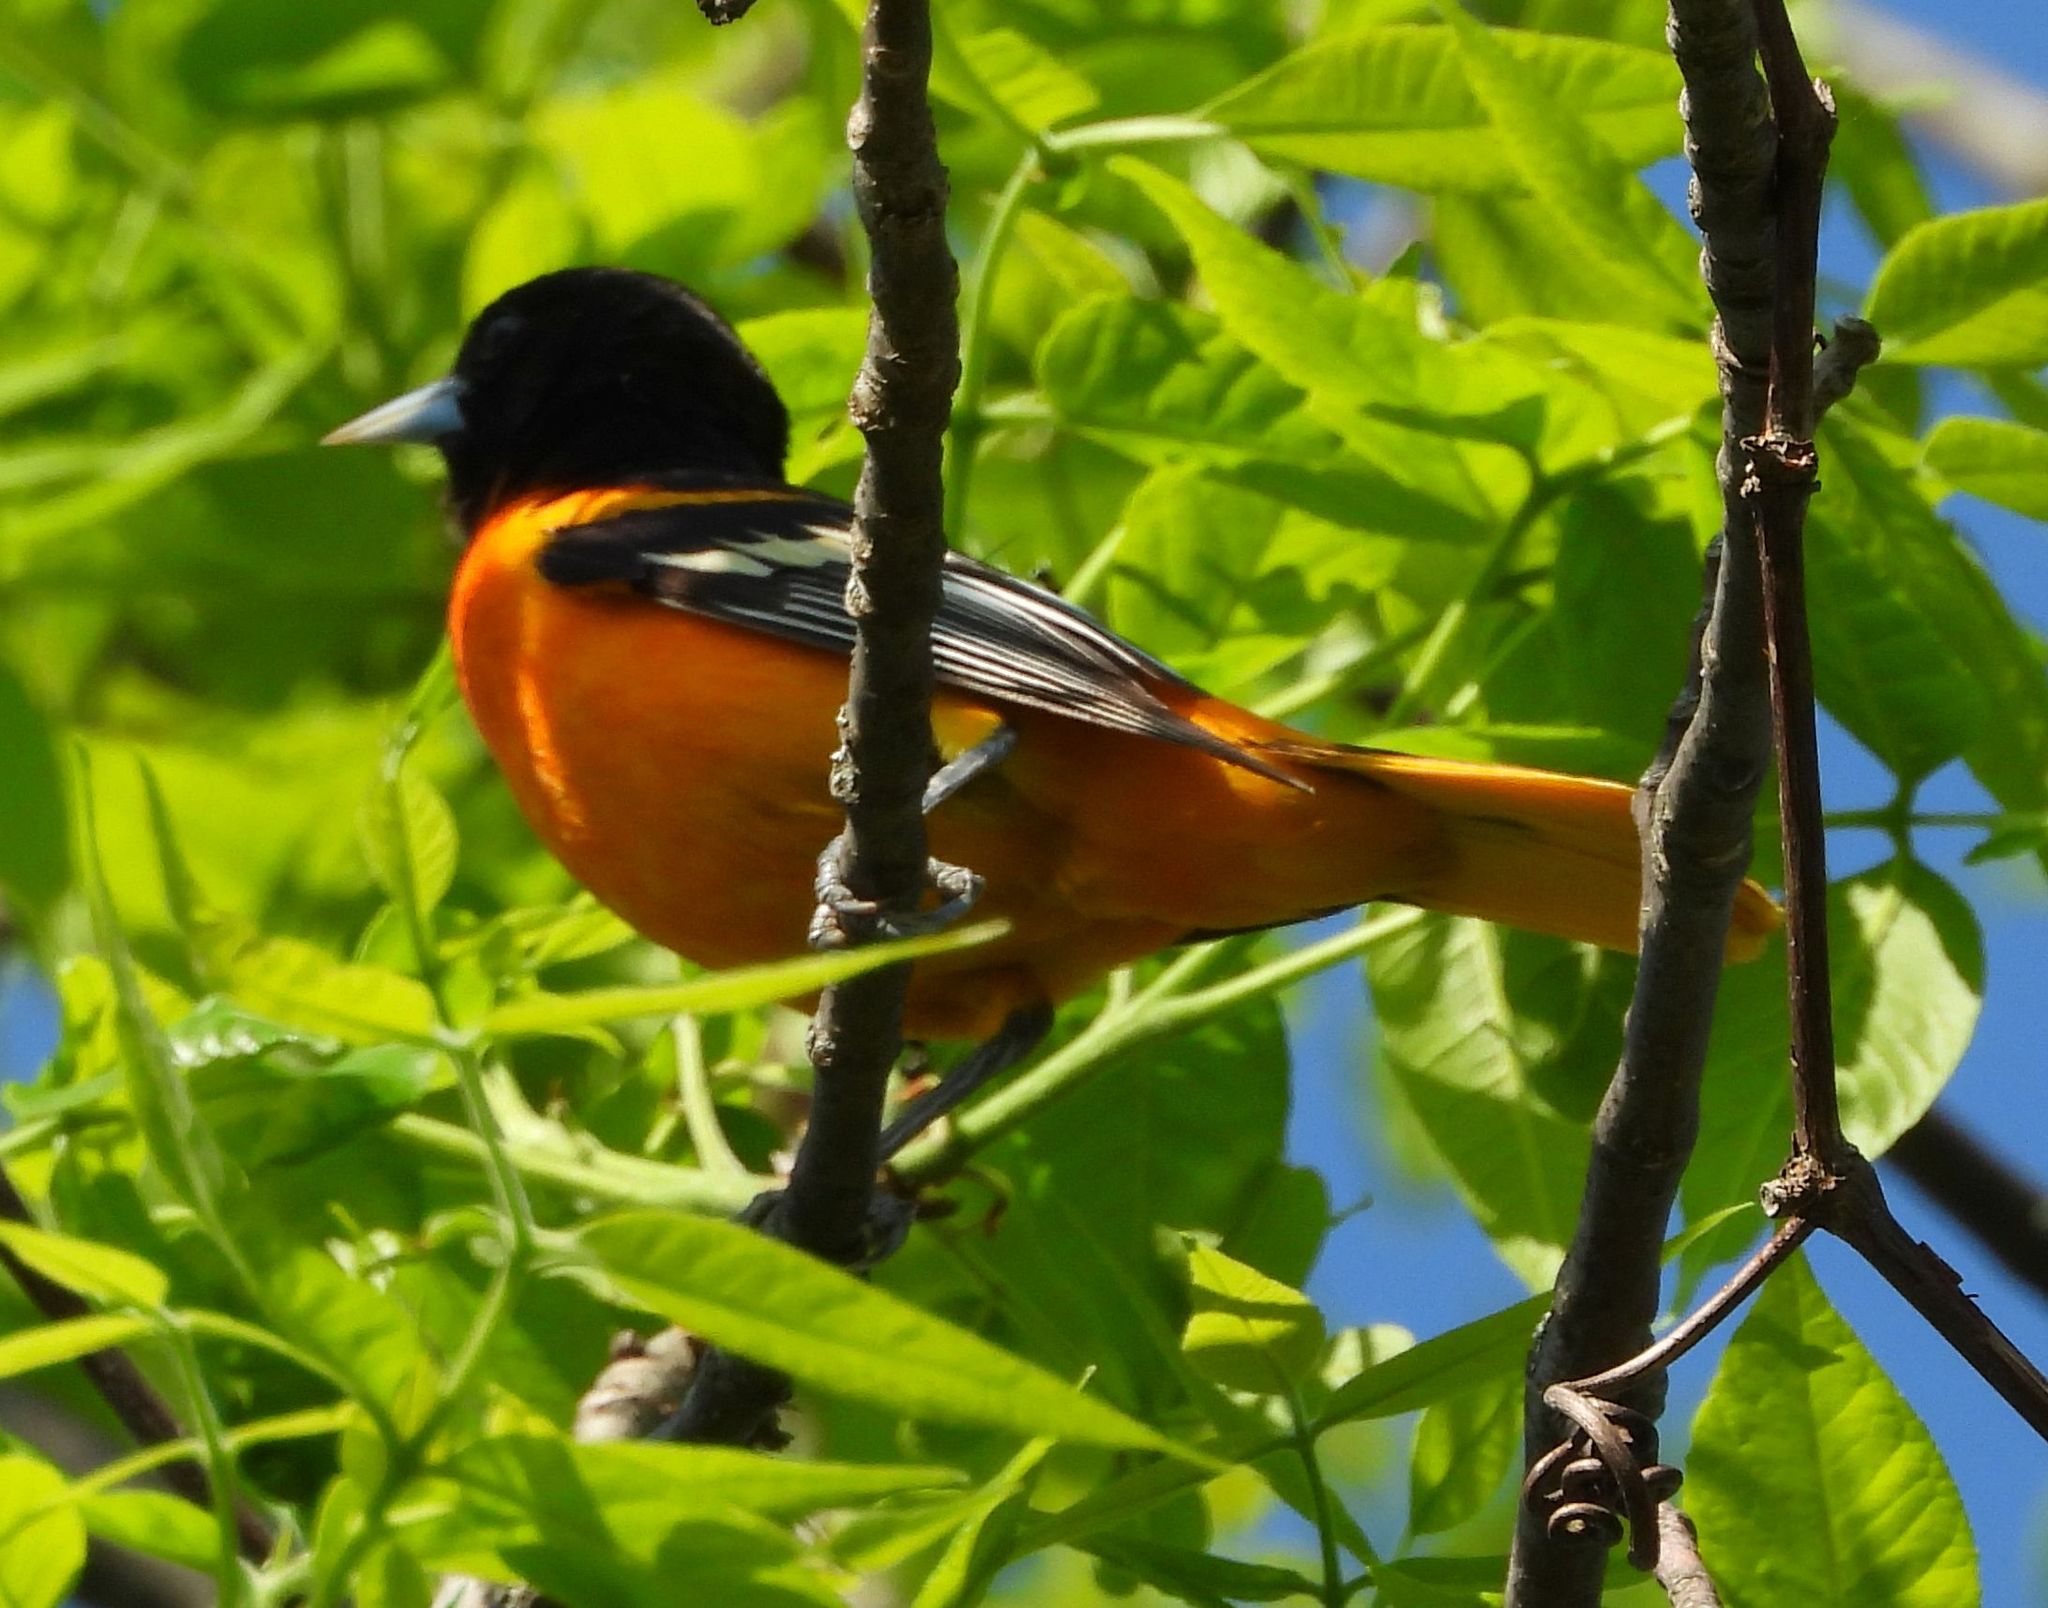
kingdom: Animalia
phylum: Chordata
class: Aves
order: Passeriformes
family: Icteridae
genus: Icterus
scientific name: Icterus galbula
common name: Baltimore oriole
